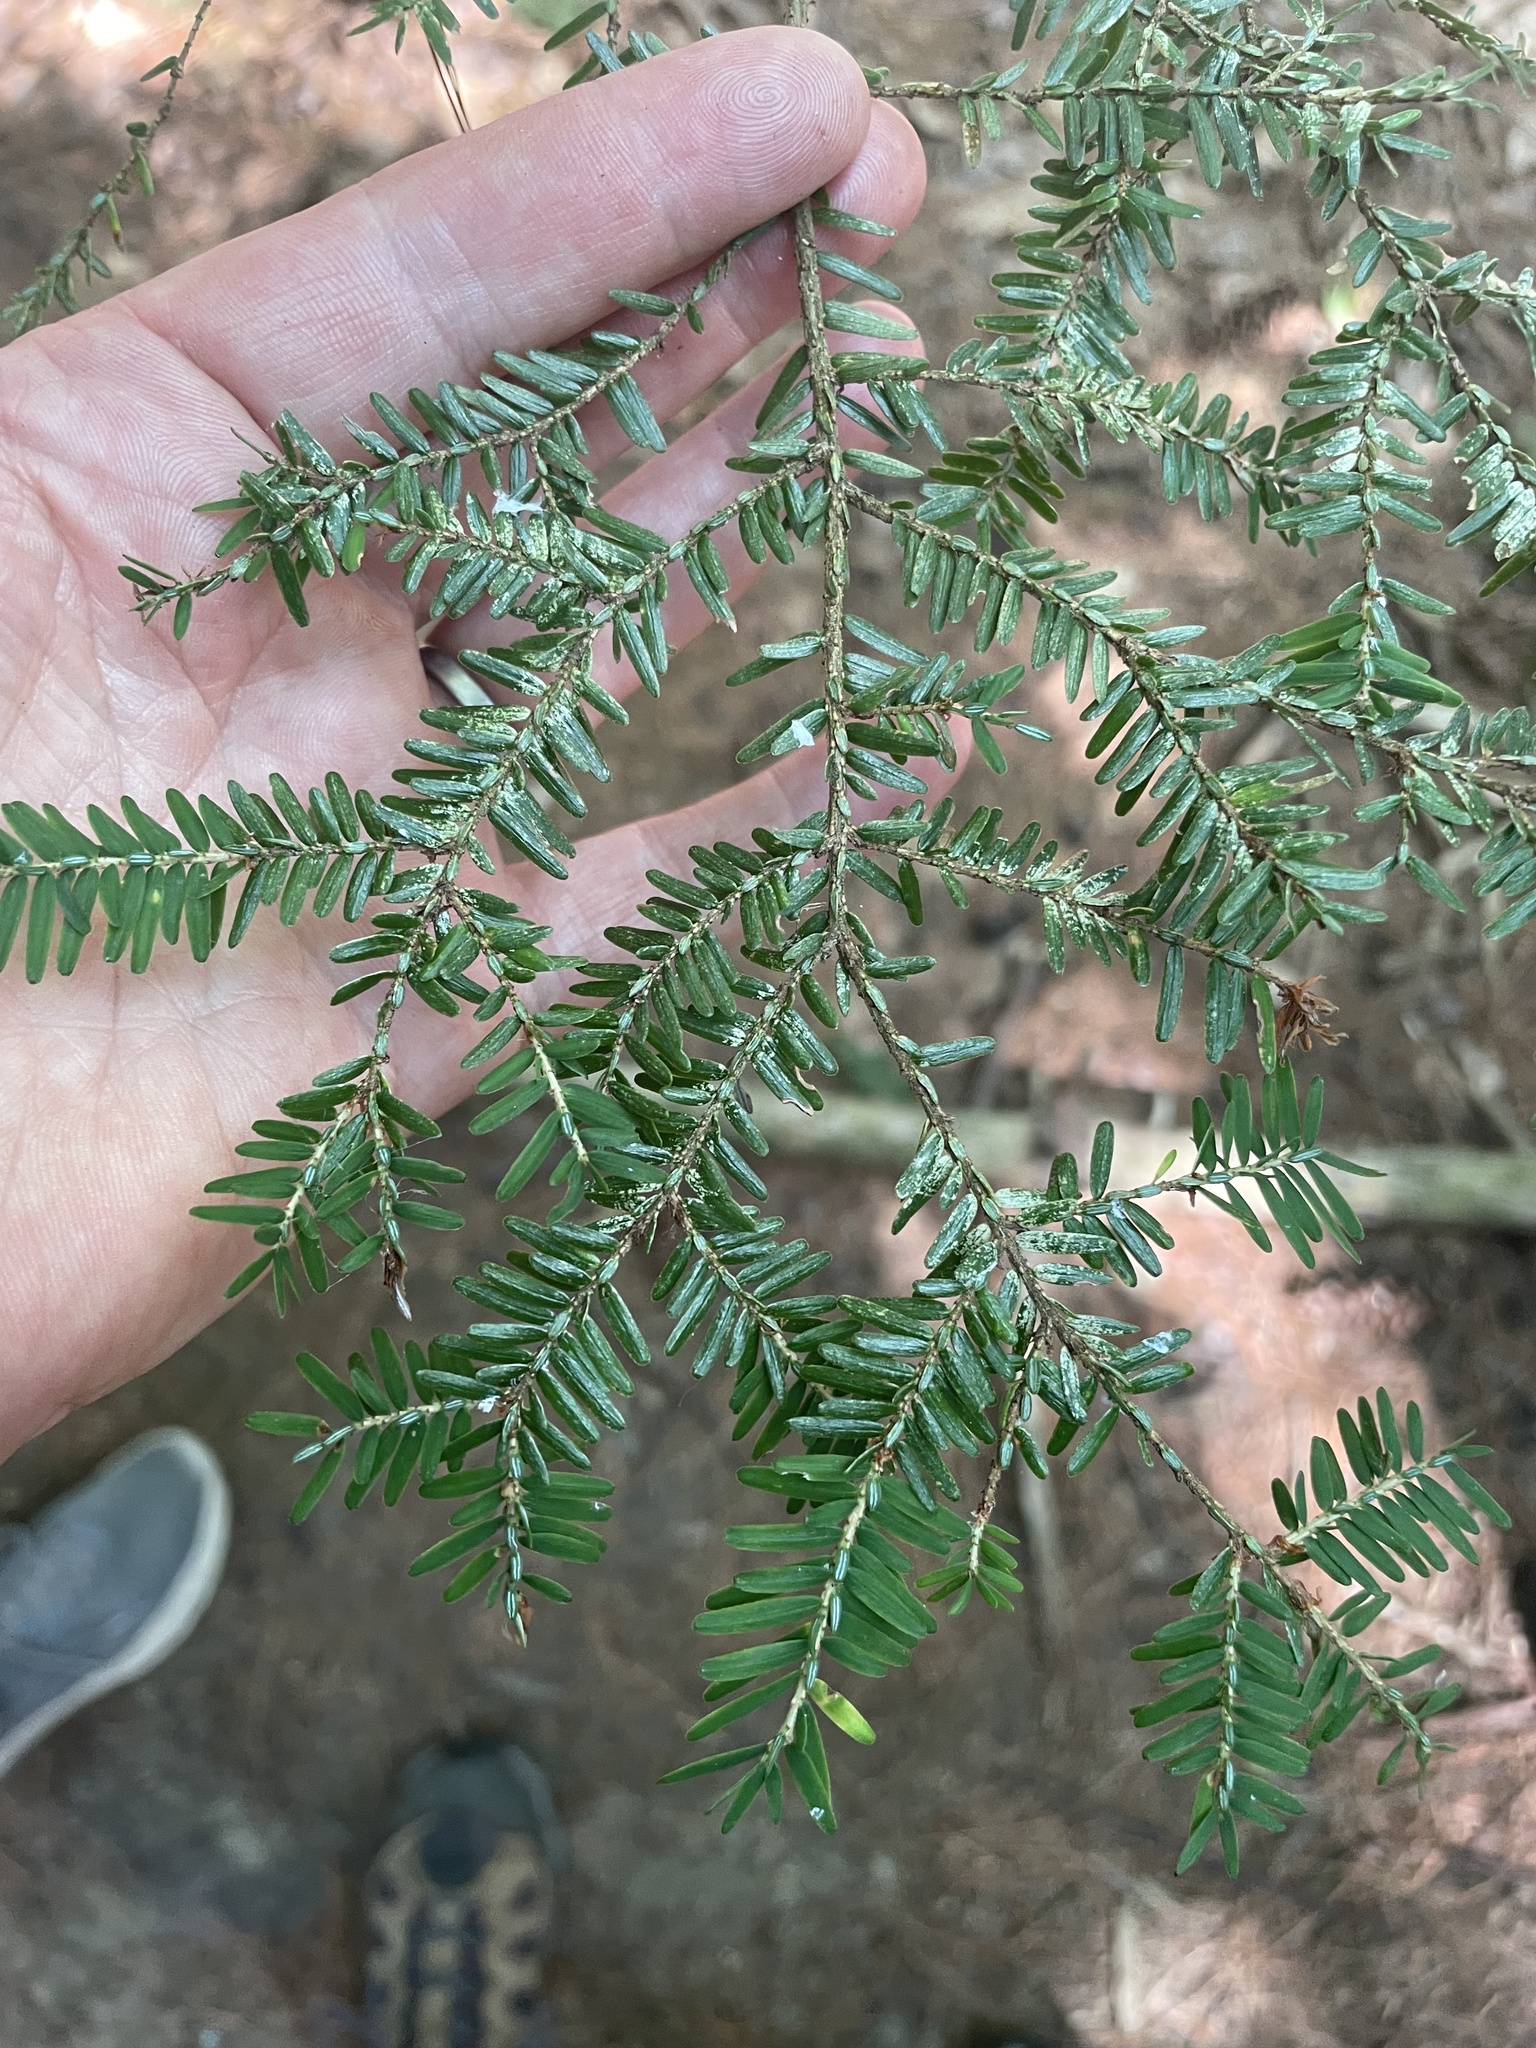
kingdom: Plantae
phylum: Tracheophyta
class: Pinopsida
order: Pinales
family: Pinaceae
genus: Tsuga
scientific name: Tsuga canadensis
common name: Eastern hemlock
